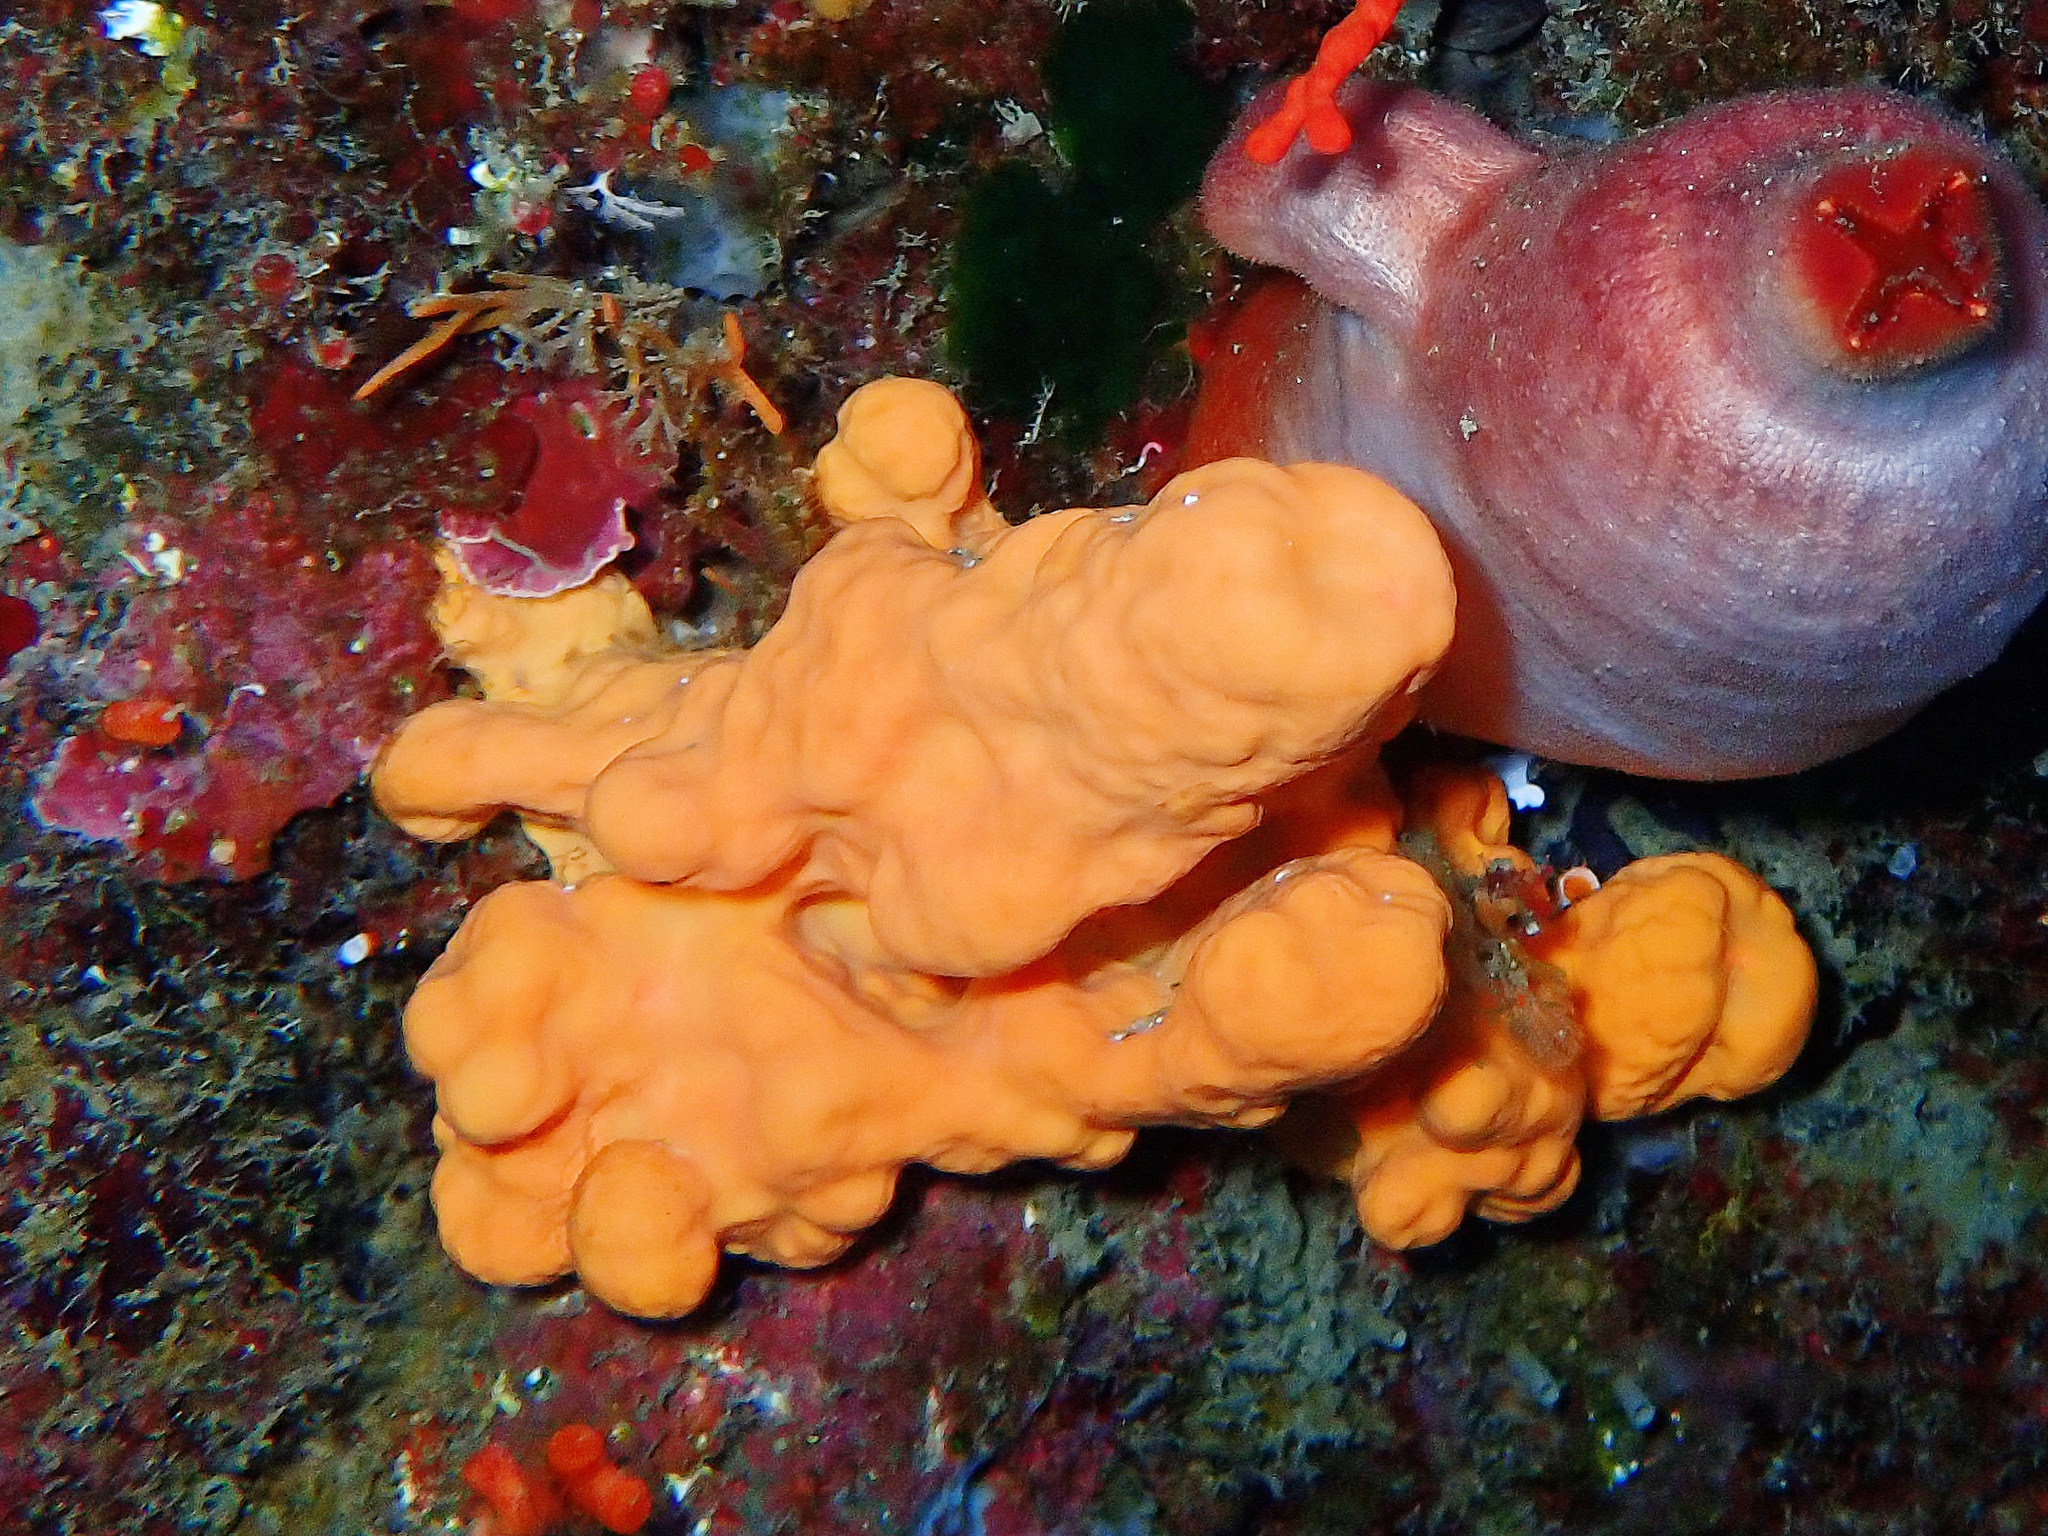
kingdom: Animalia
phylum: Porifera
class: Demospongiae
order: Agelasida
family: Agelasidae
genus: Agelas
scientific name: Agelas oroides
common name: Maltese sponge
